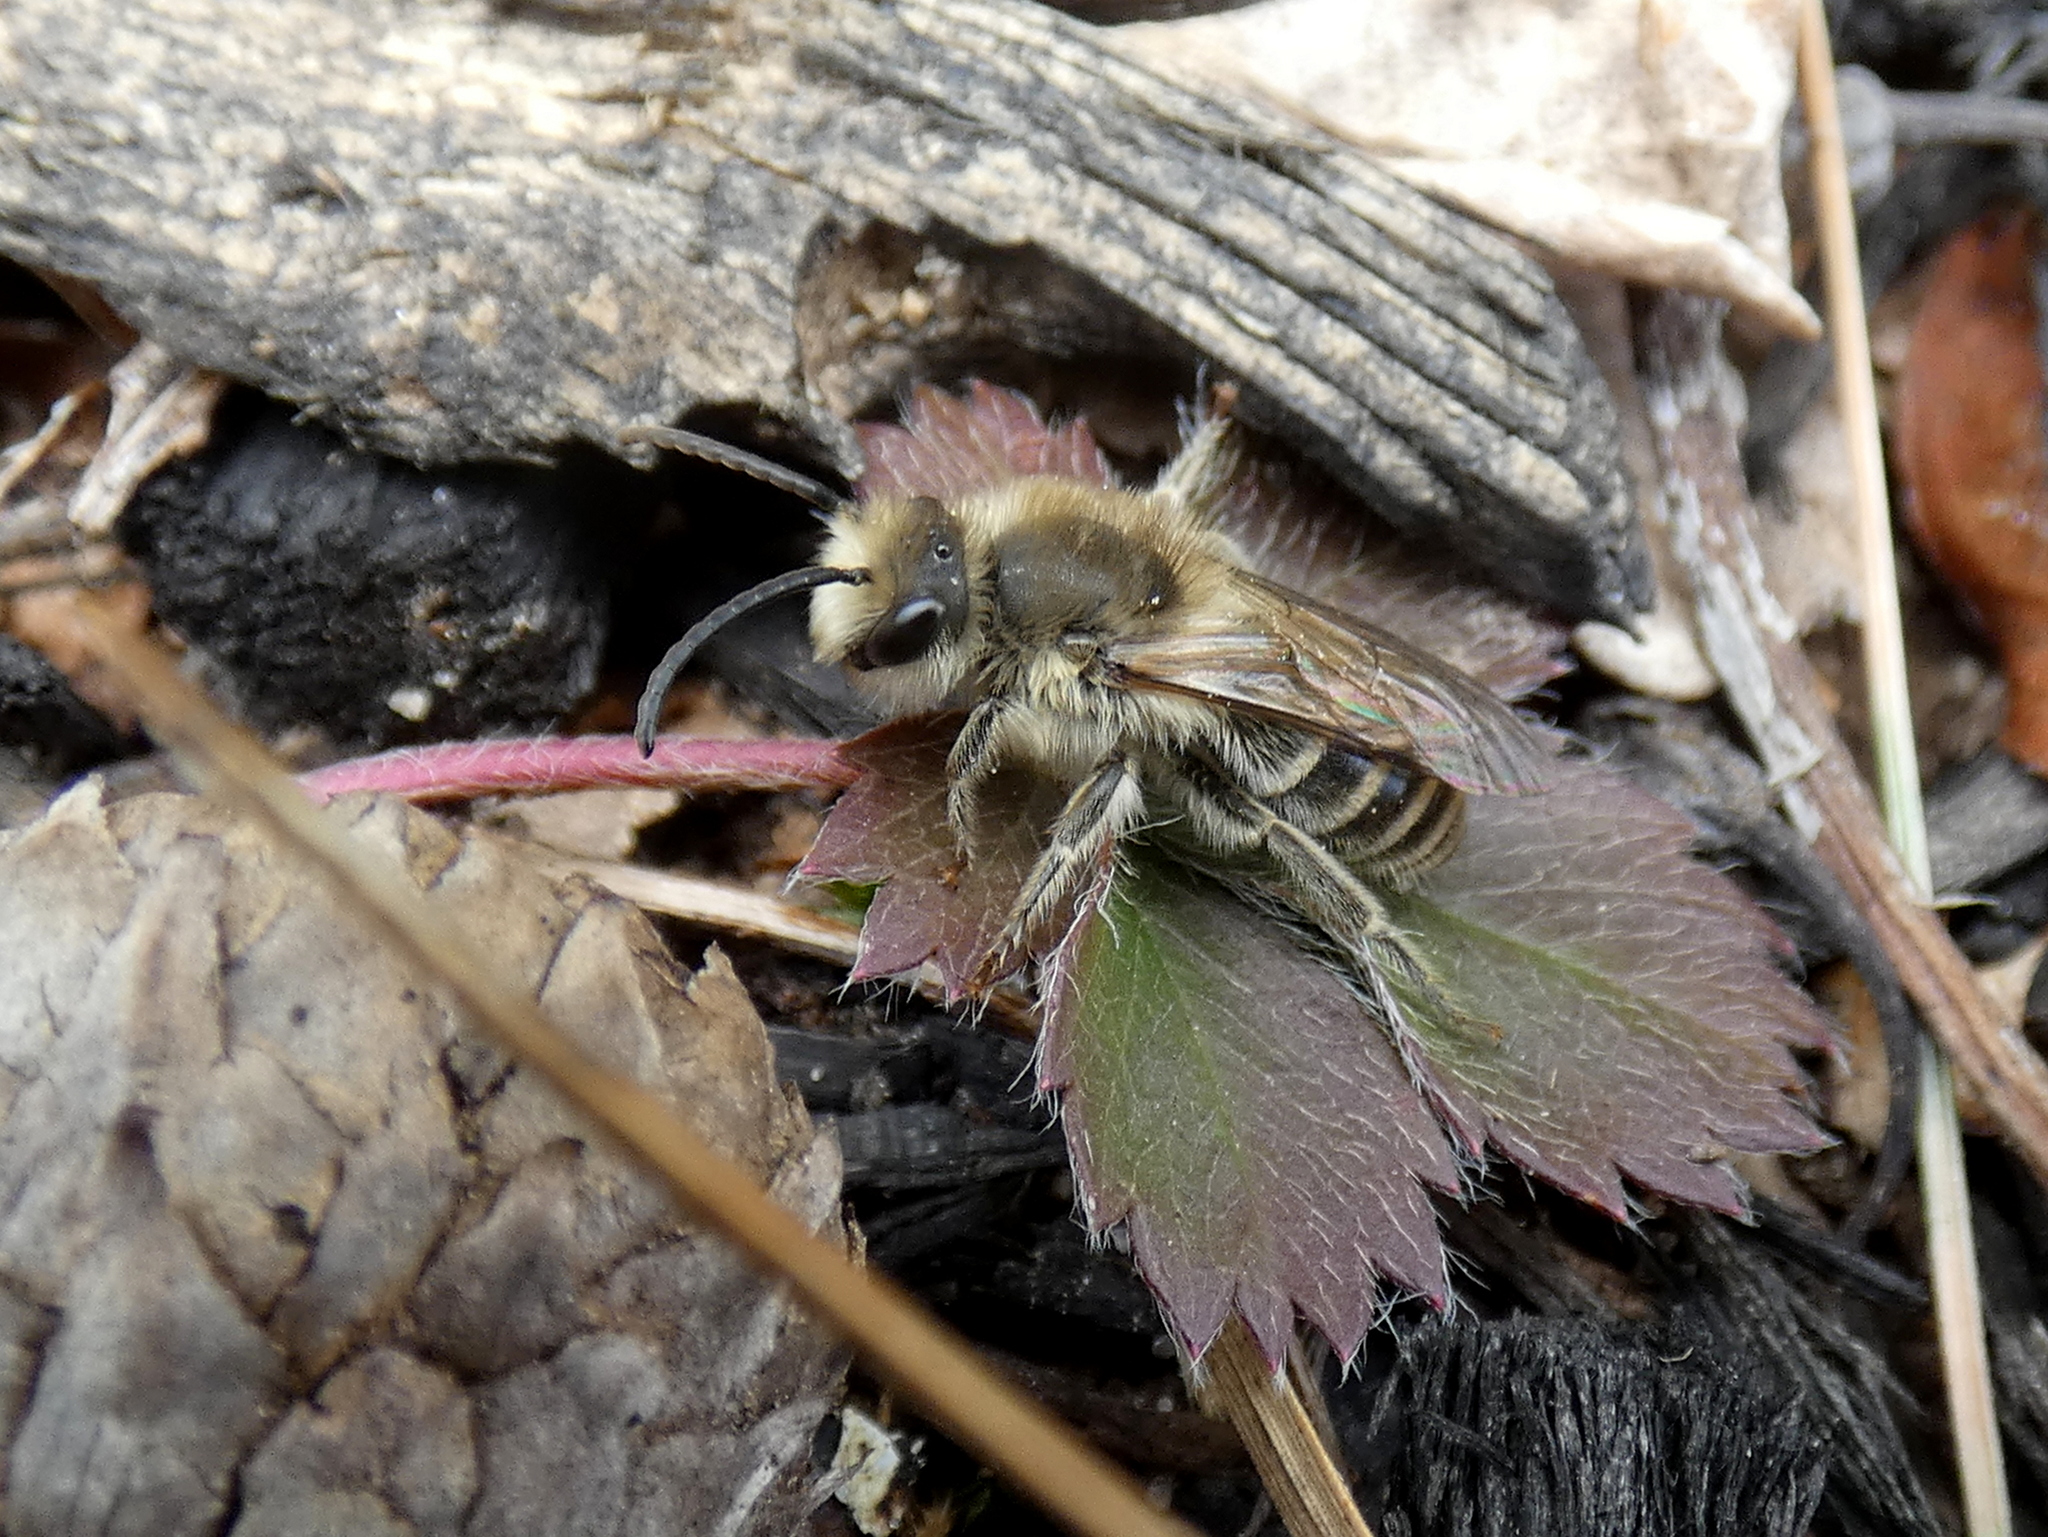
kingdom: Animalia
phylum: Arthropoda
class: Insecta
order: Hymenoptera
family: Colletidae
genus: Colletes
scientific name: Colletes inaequalis
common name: Unequal cellophane bee
